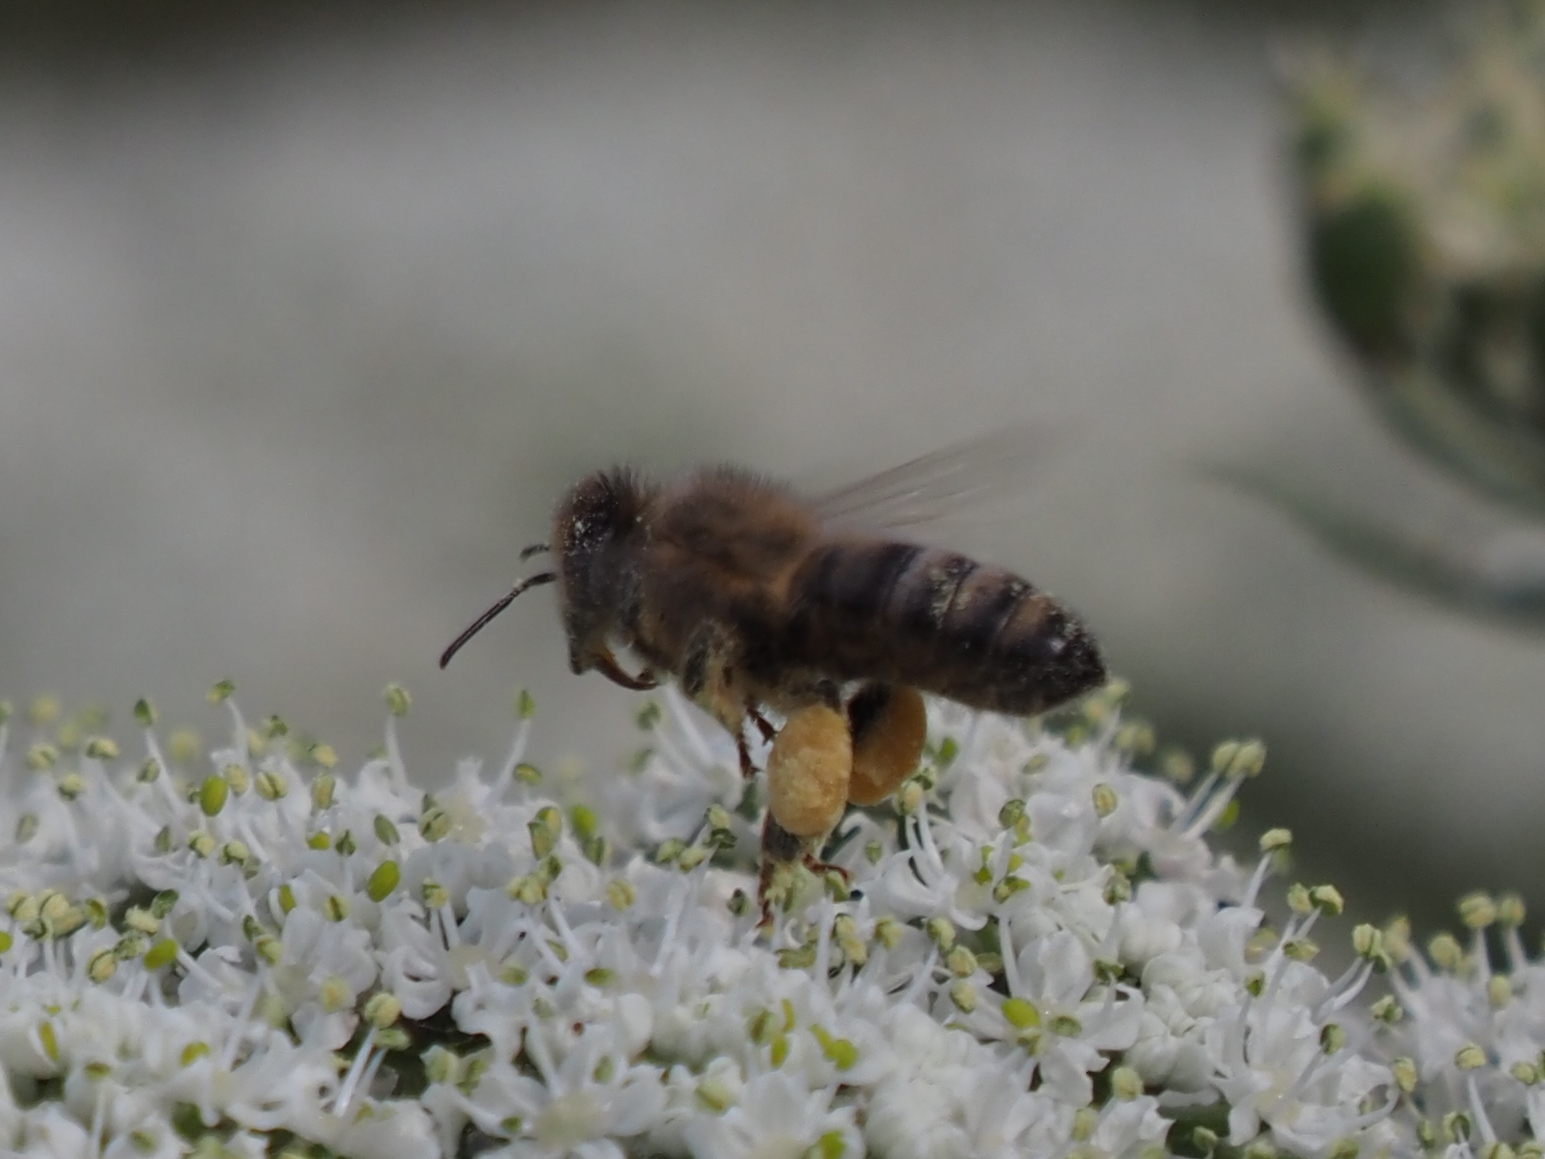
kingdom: Animalia
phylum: Arthropoda
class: Insecta
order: Hymenoptera
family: Apidae
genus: Apis
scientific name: Apis mellifera
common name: Honey bee
